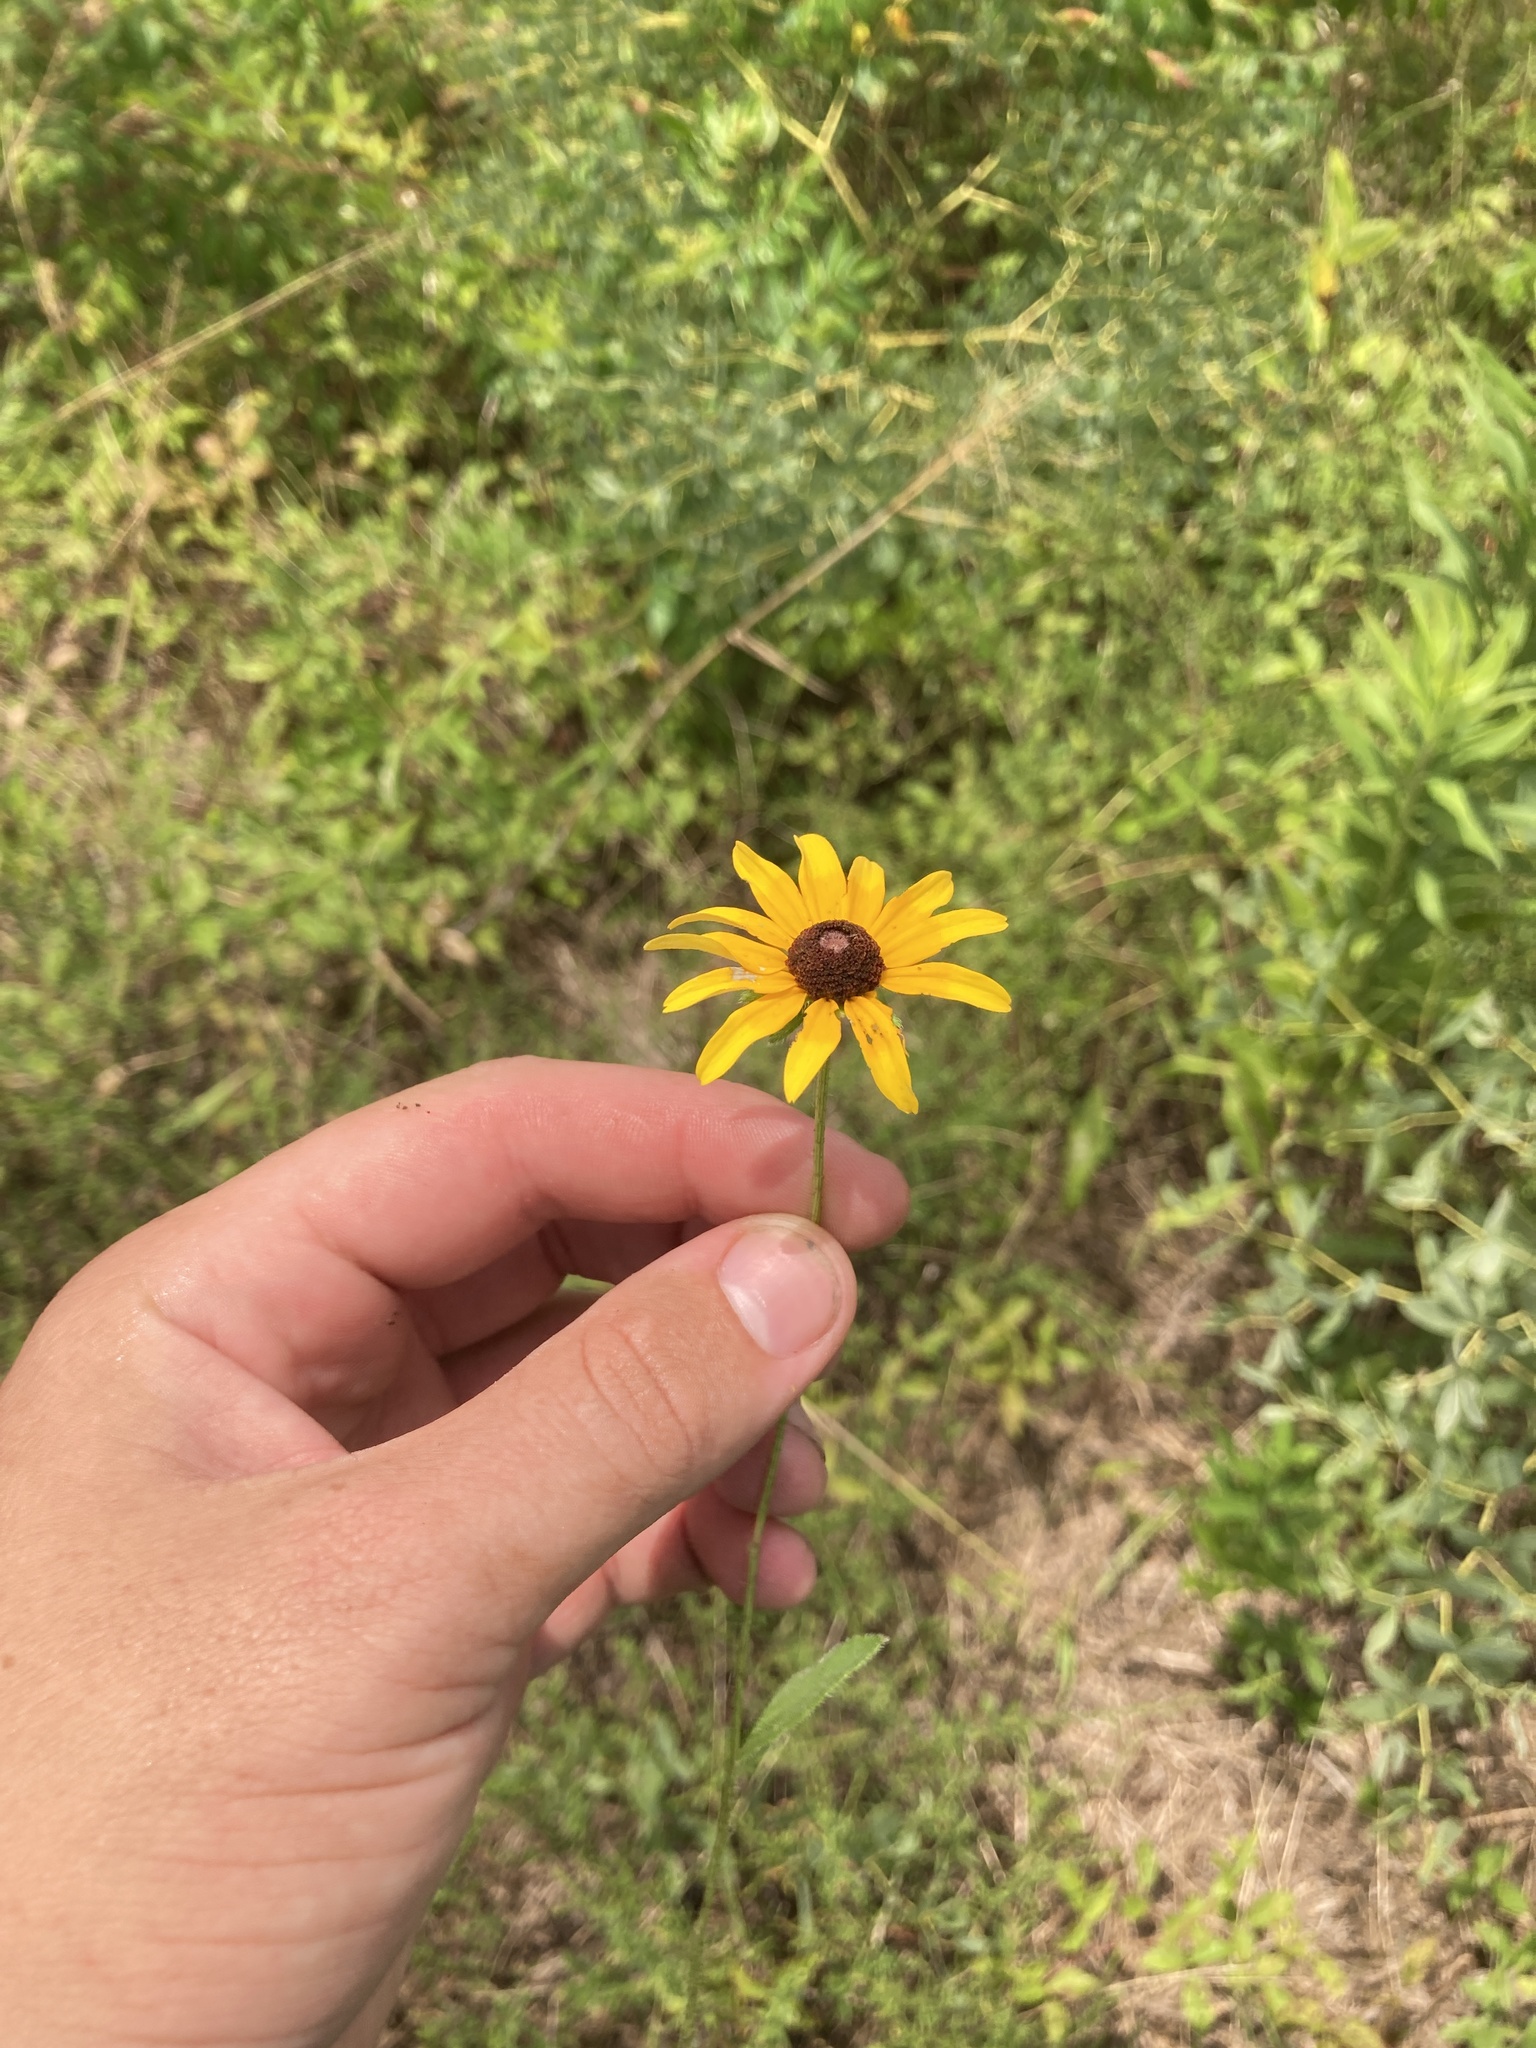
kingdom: Plantae
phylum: Tracheophyta
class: Magnoliopsida
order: Asterales
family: Asteraceae
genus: Rudbeckia
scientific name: Rudbeckia hirta
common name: Black-eyed-susan
